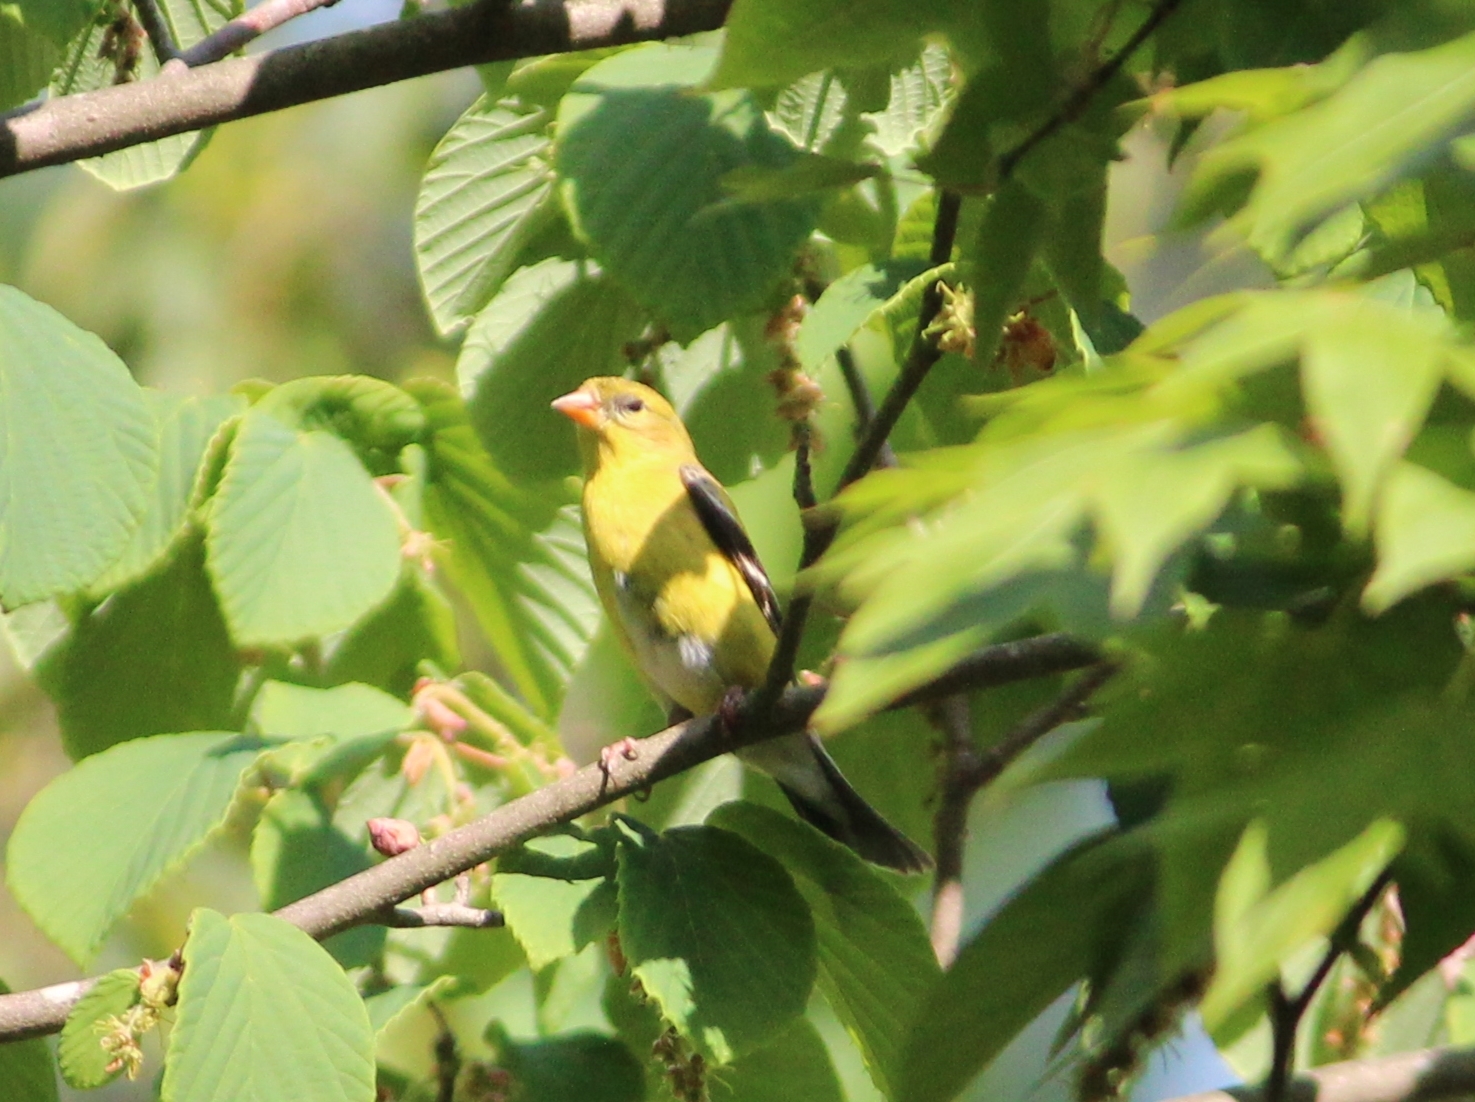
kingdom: Animalia
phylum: Chordata
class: Aves
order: Passeriformes
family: Fringillidae
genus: Spinus
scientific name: Spinus tristis
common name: American goldfinch
